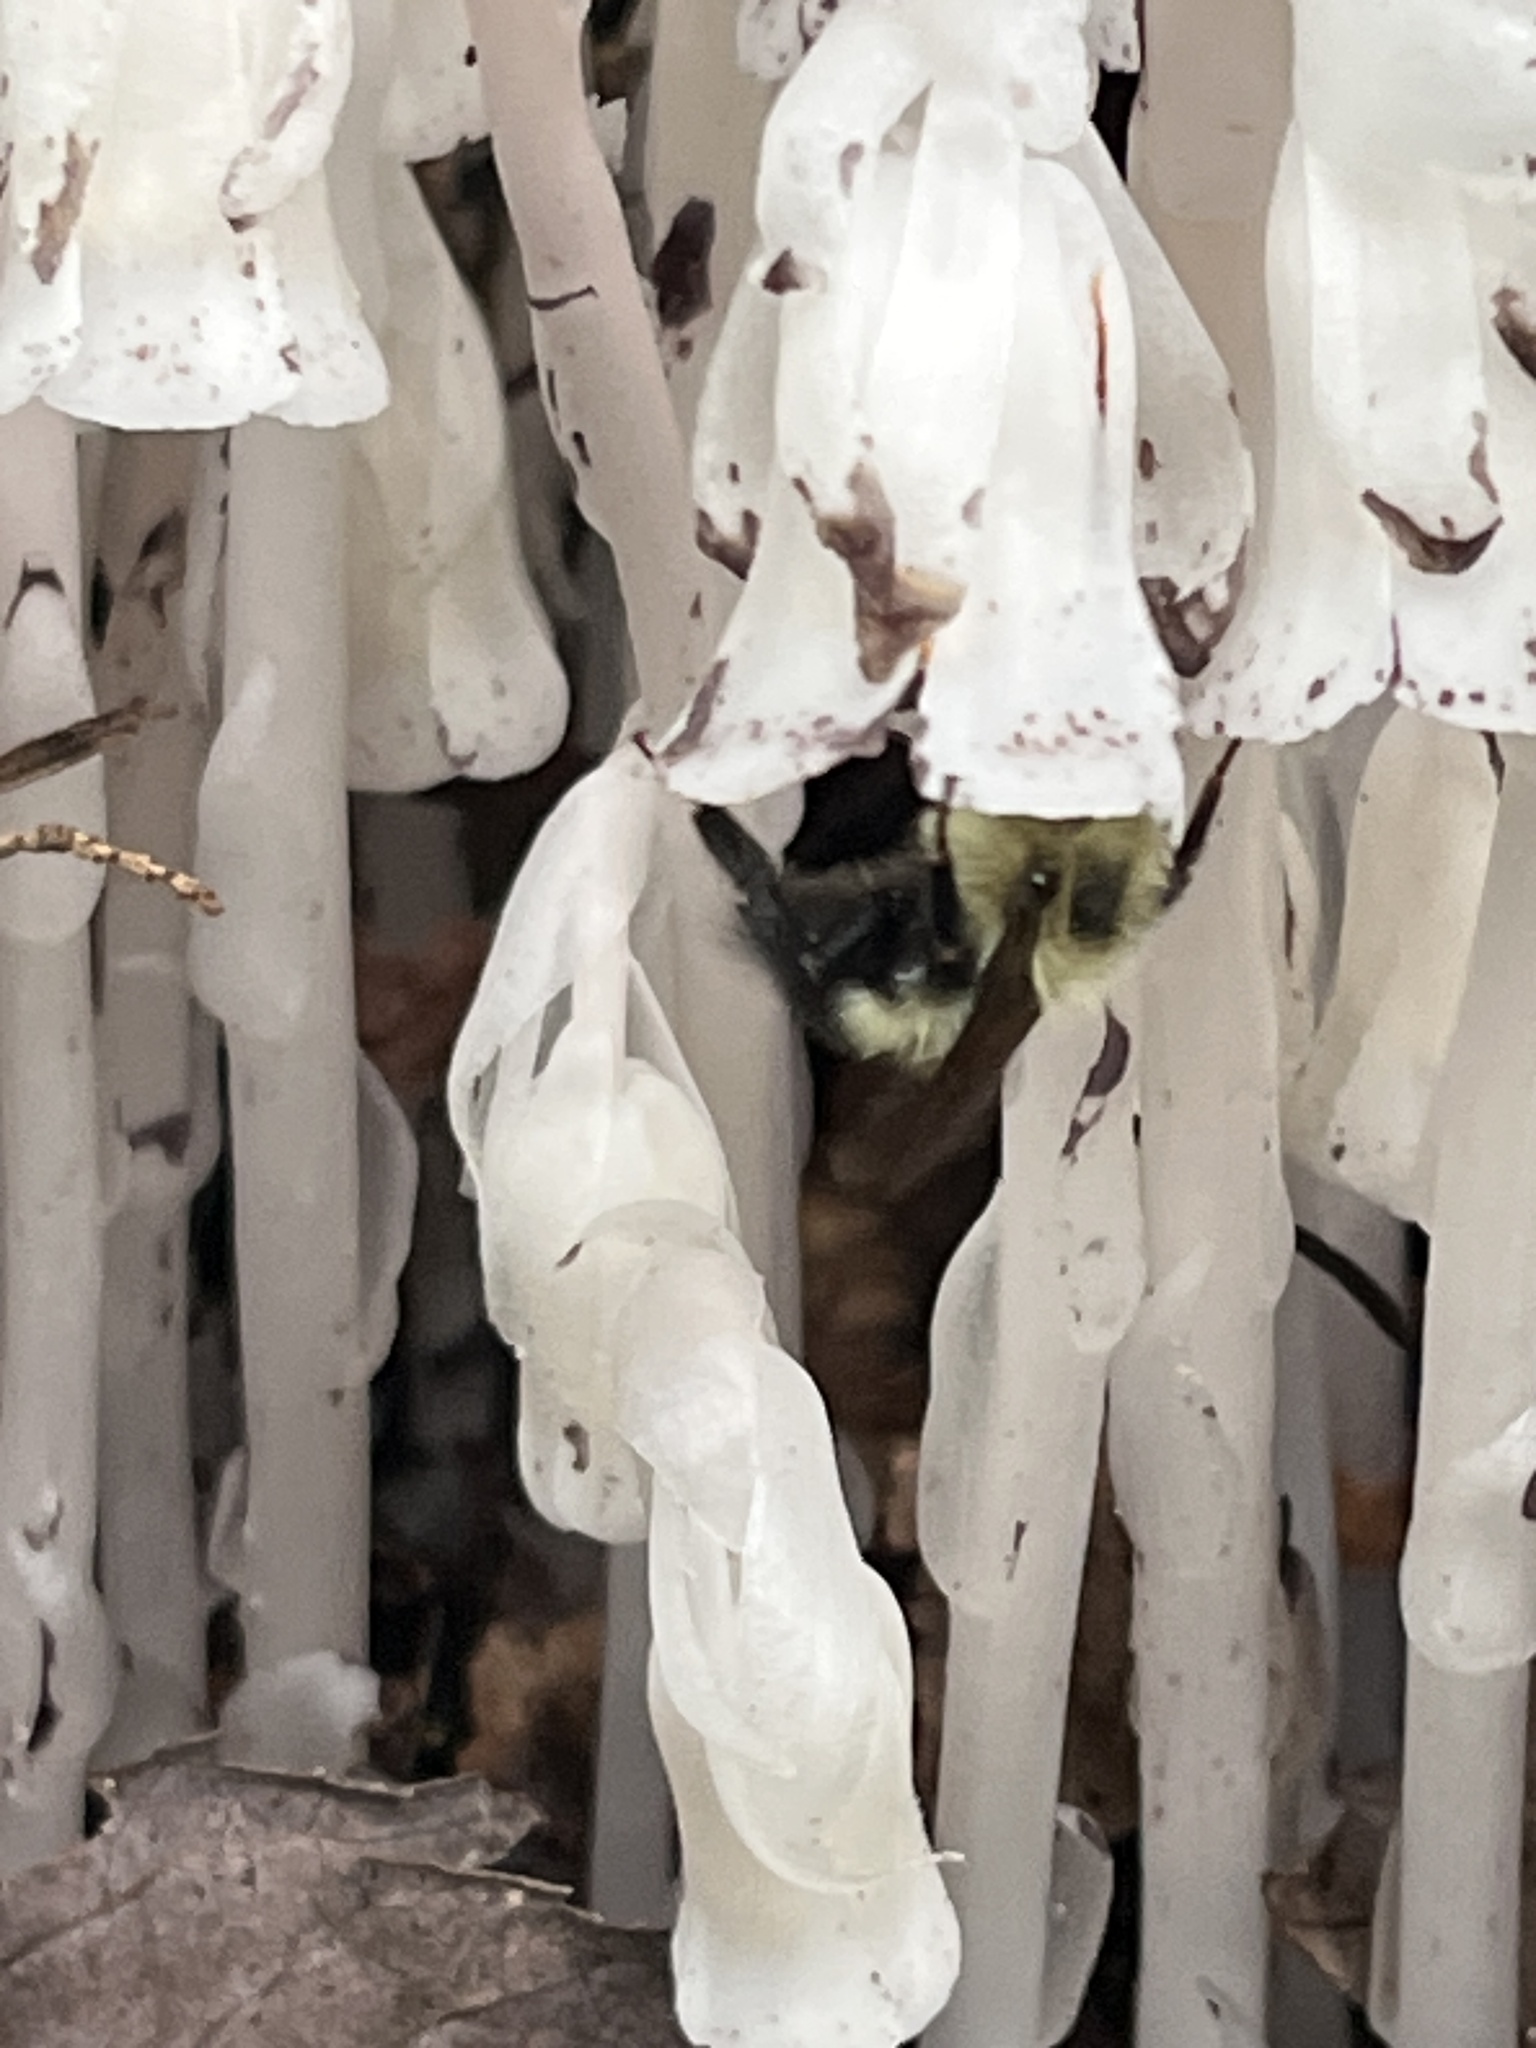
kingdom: Plantae
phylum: Tracheophyta
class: Magnoliopsida
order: Ericales
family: Ericaceae
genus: Monotropa
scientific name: Monotropa uniflora
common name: Convulsion root
